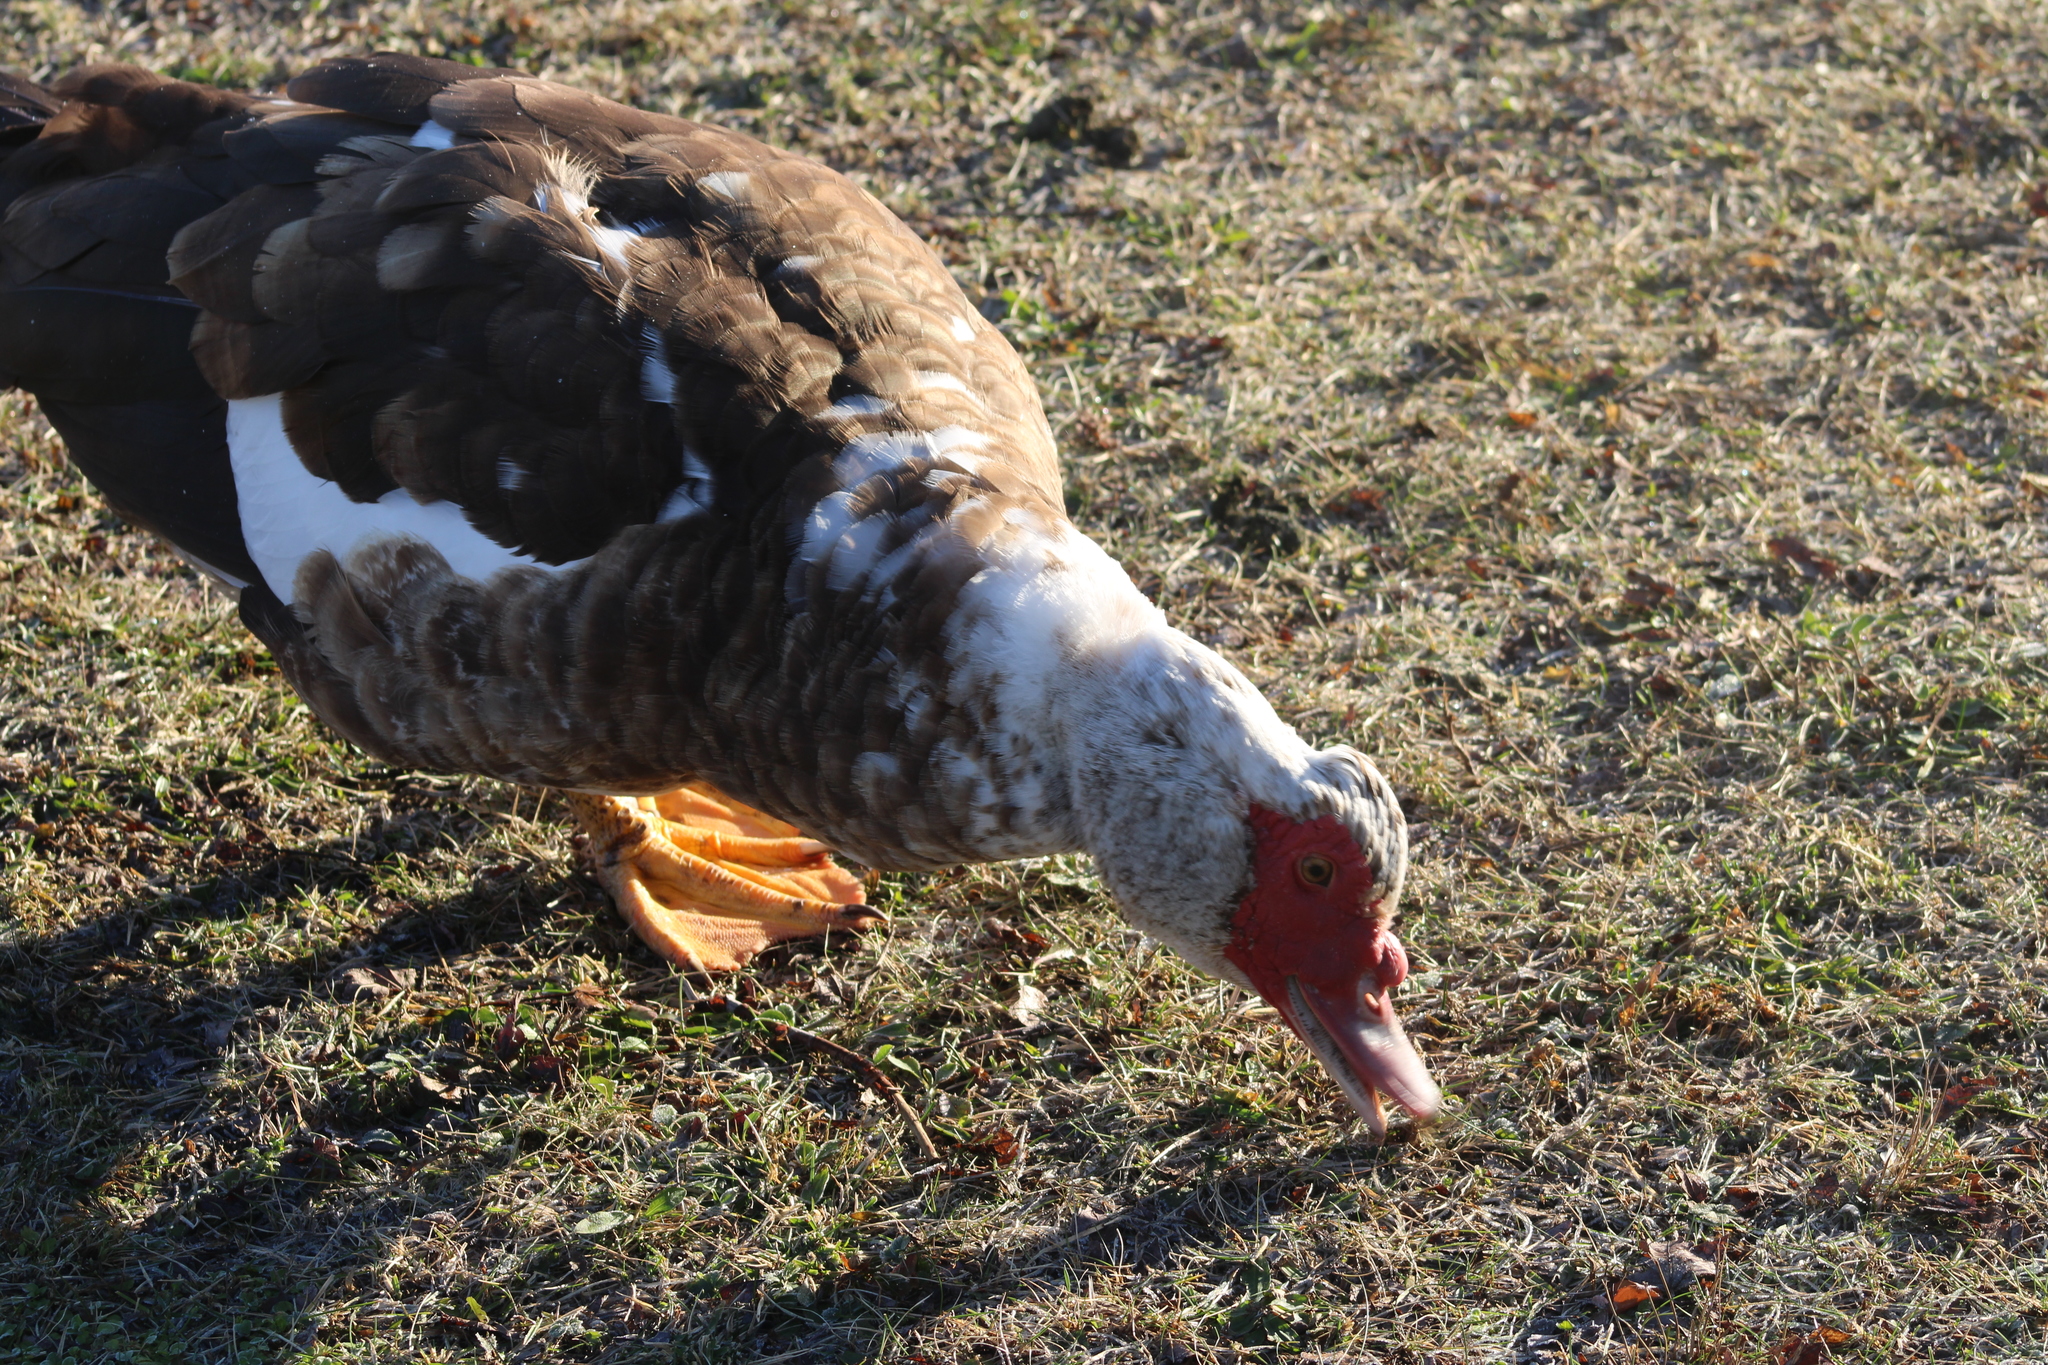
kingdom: Animalia
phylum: Chordata
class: Aves
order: Anseriformes
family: Anatidae
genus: Cairina
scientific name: Cairina moschata
